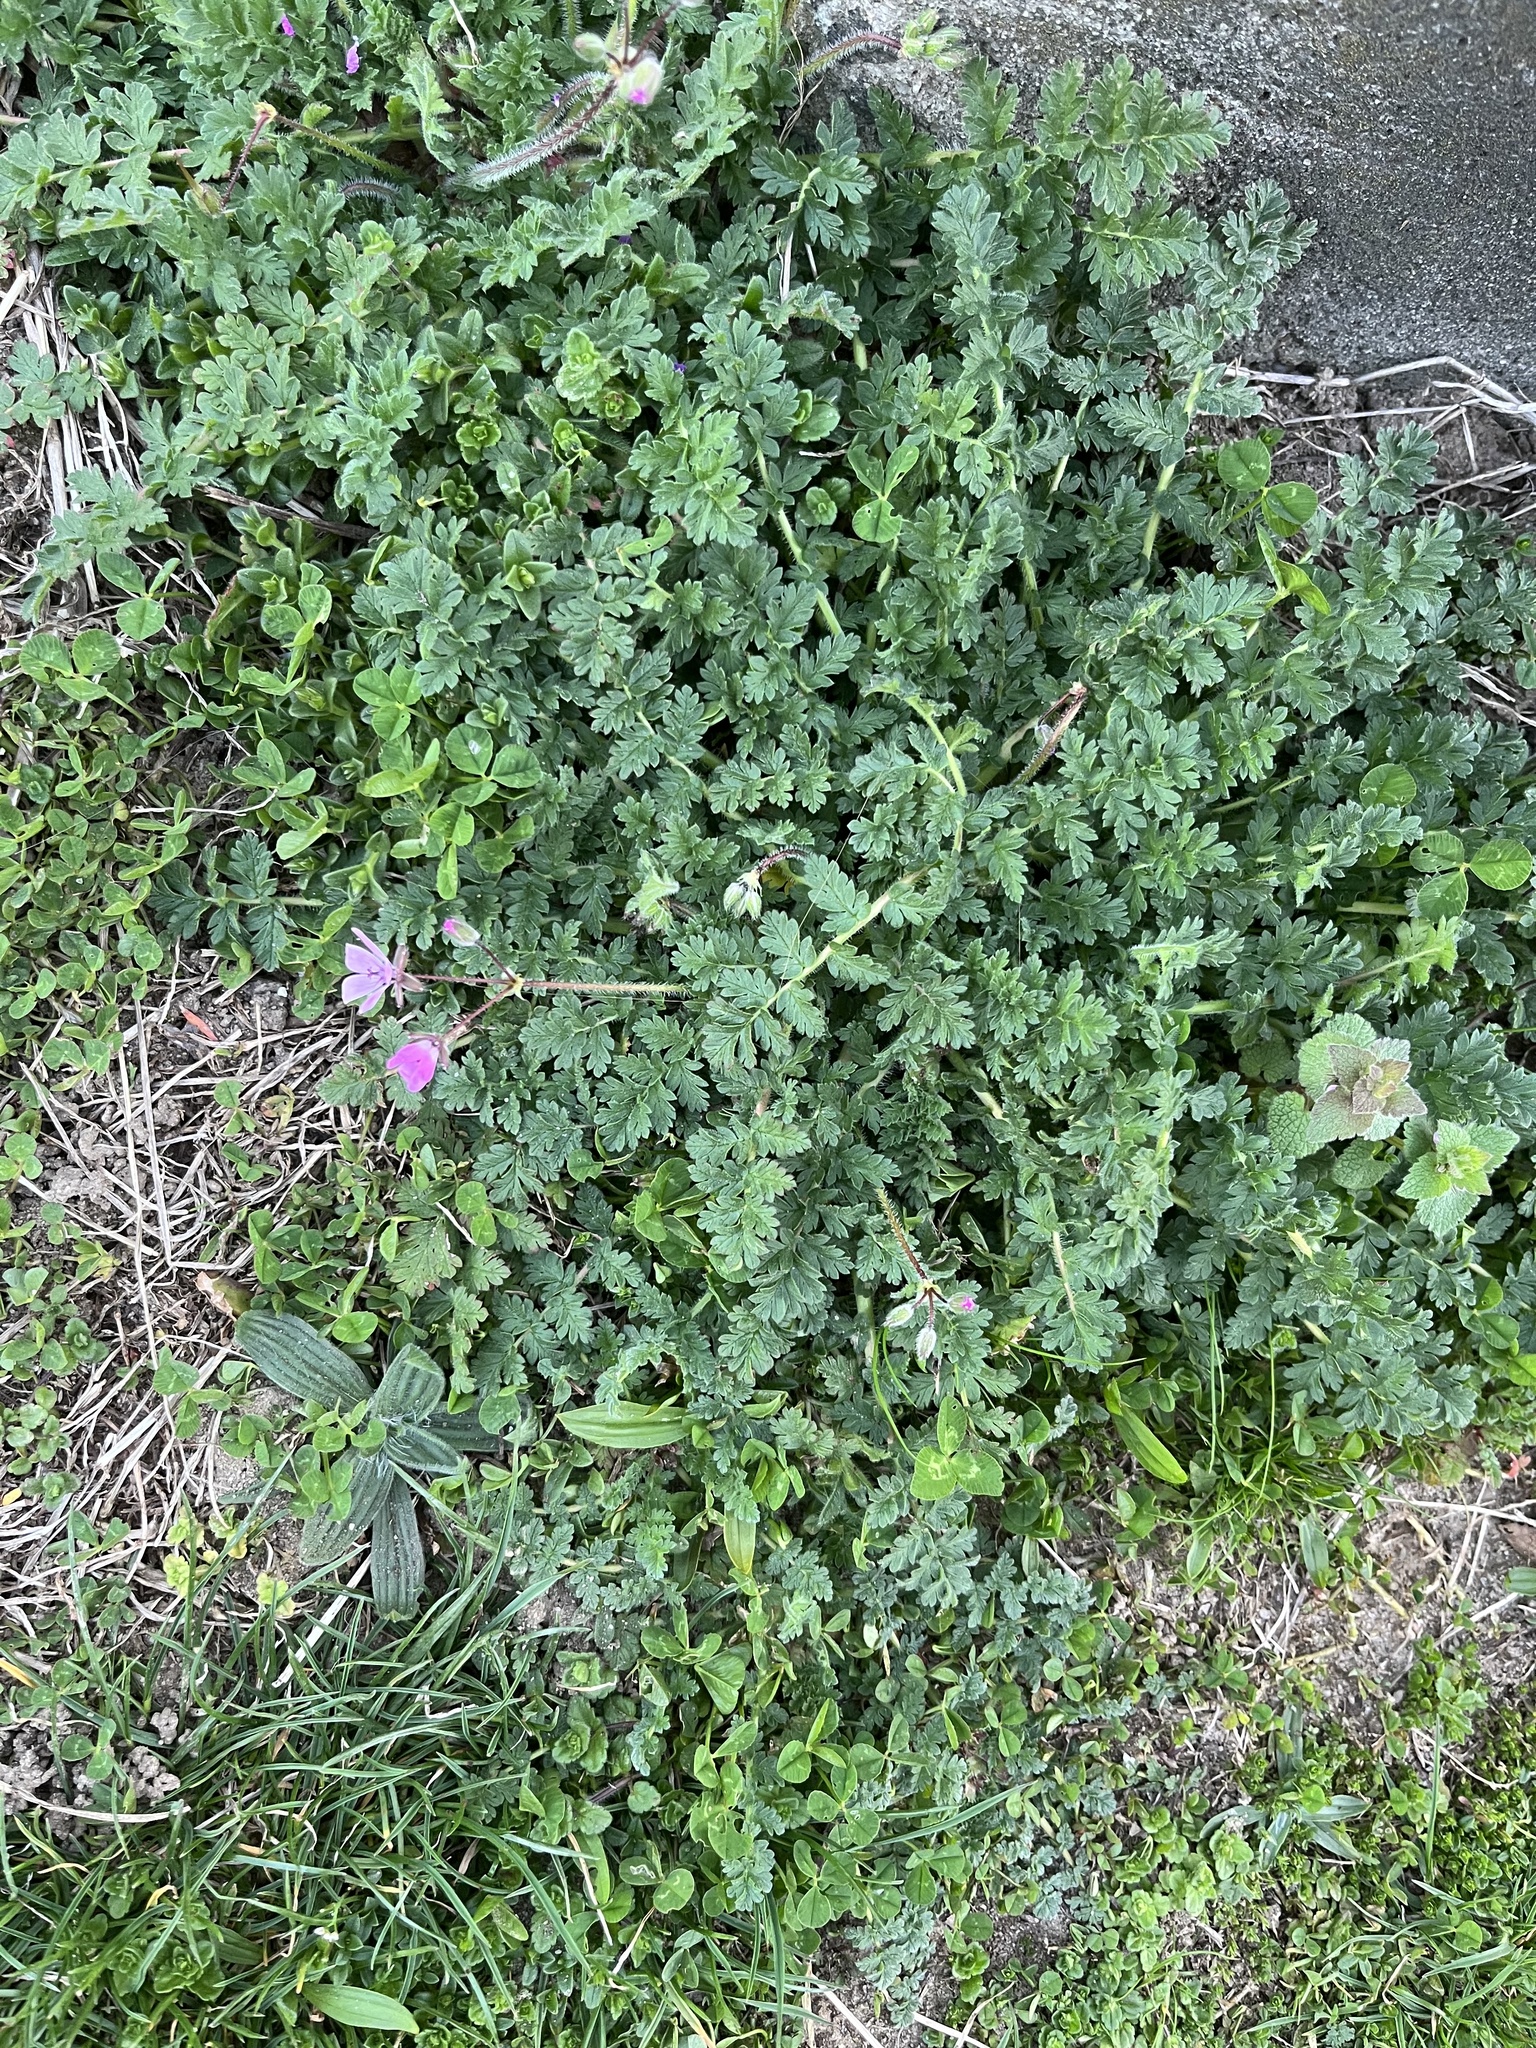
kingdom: Plantae
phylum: Tracheophyta
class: Magnoliopsida
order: Geraniales
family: Geraniaceae
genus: Erodium
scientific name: Erodium cicutarium
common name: Common stork's-bill
